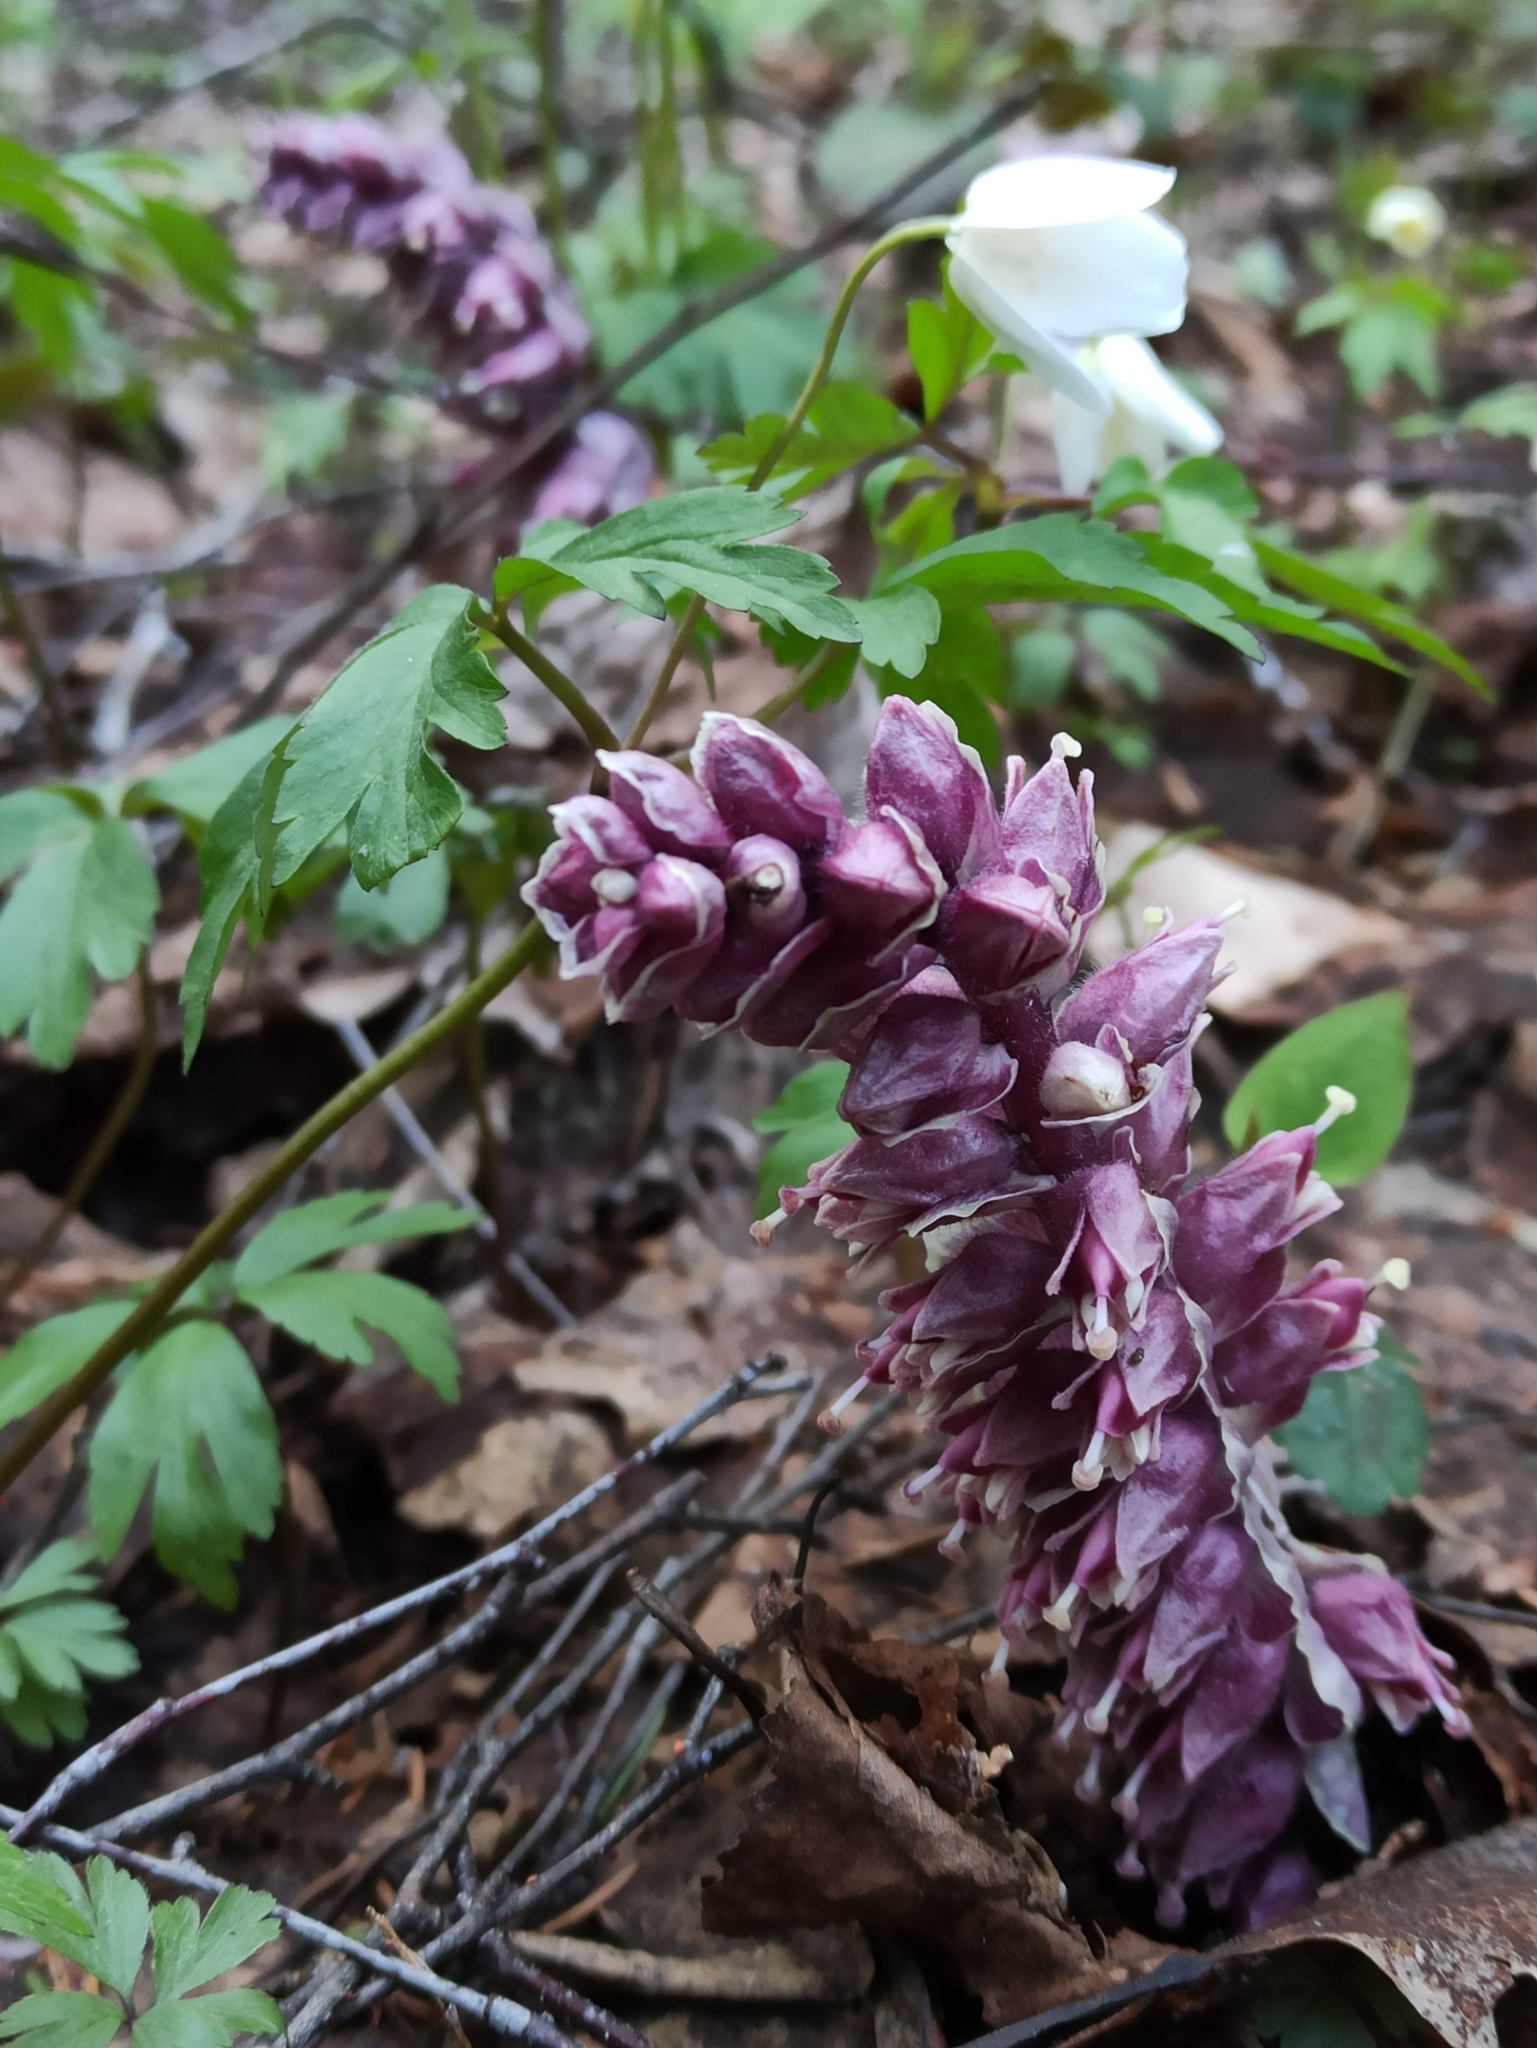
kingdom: Plantae
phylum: Tracheophyta
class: Magnoliopsida
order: Lamiales
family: Orobanchaceae
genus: Lathraea
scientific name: Lathraea squamaria
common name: Toothwort
